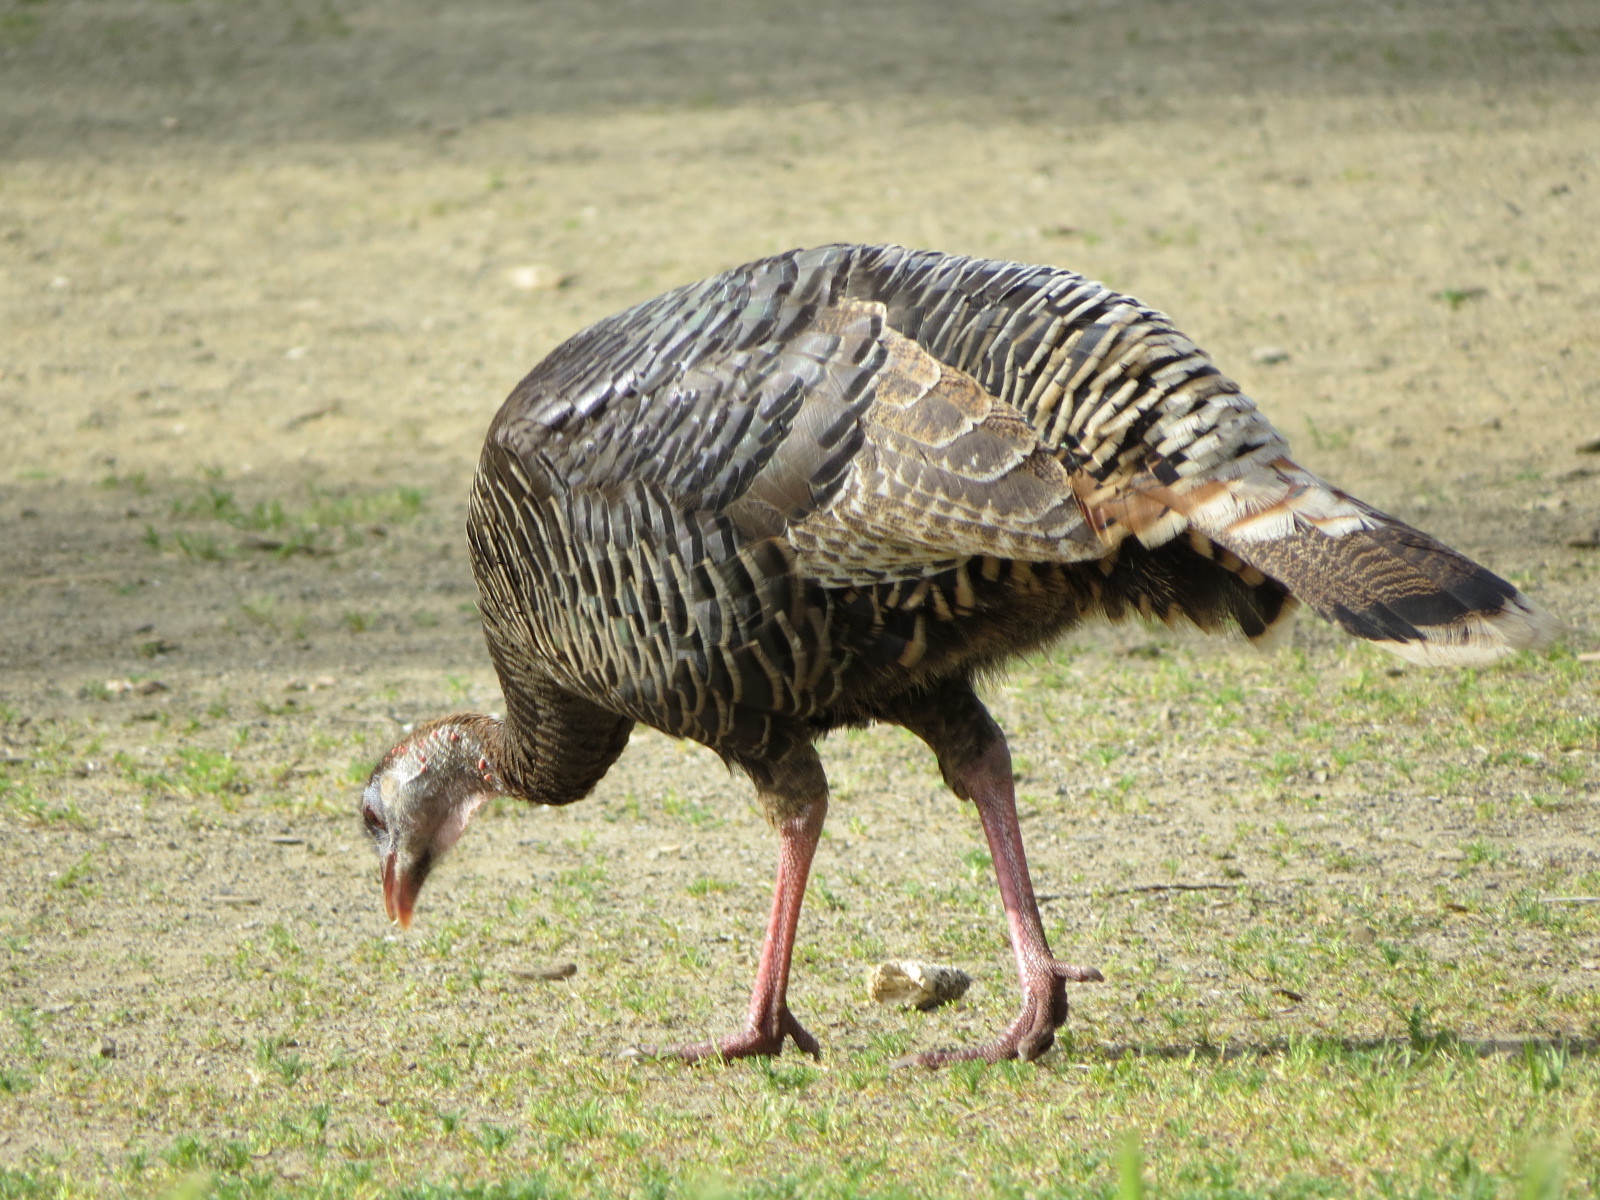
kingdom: Animalia
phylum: Chordata
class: Aves
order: Galliformes
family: Phasianidae
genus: Meleagris
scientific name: Meleagris gallopavo
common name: Wild turkey
